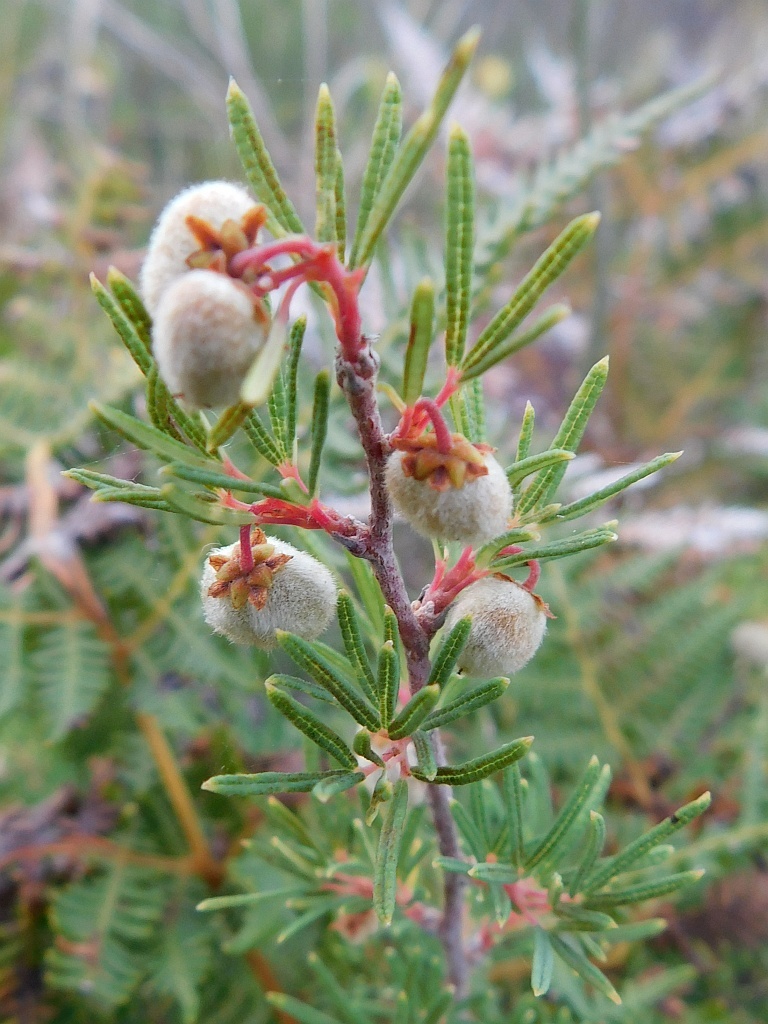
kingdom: Plantae
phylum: Tracheophyta
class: Magnoliopsida
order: Sapindales
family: Anacardiaceae
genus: Searsia
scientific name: Searsia rosmarinifolia
